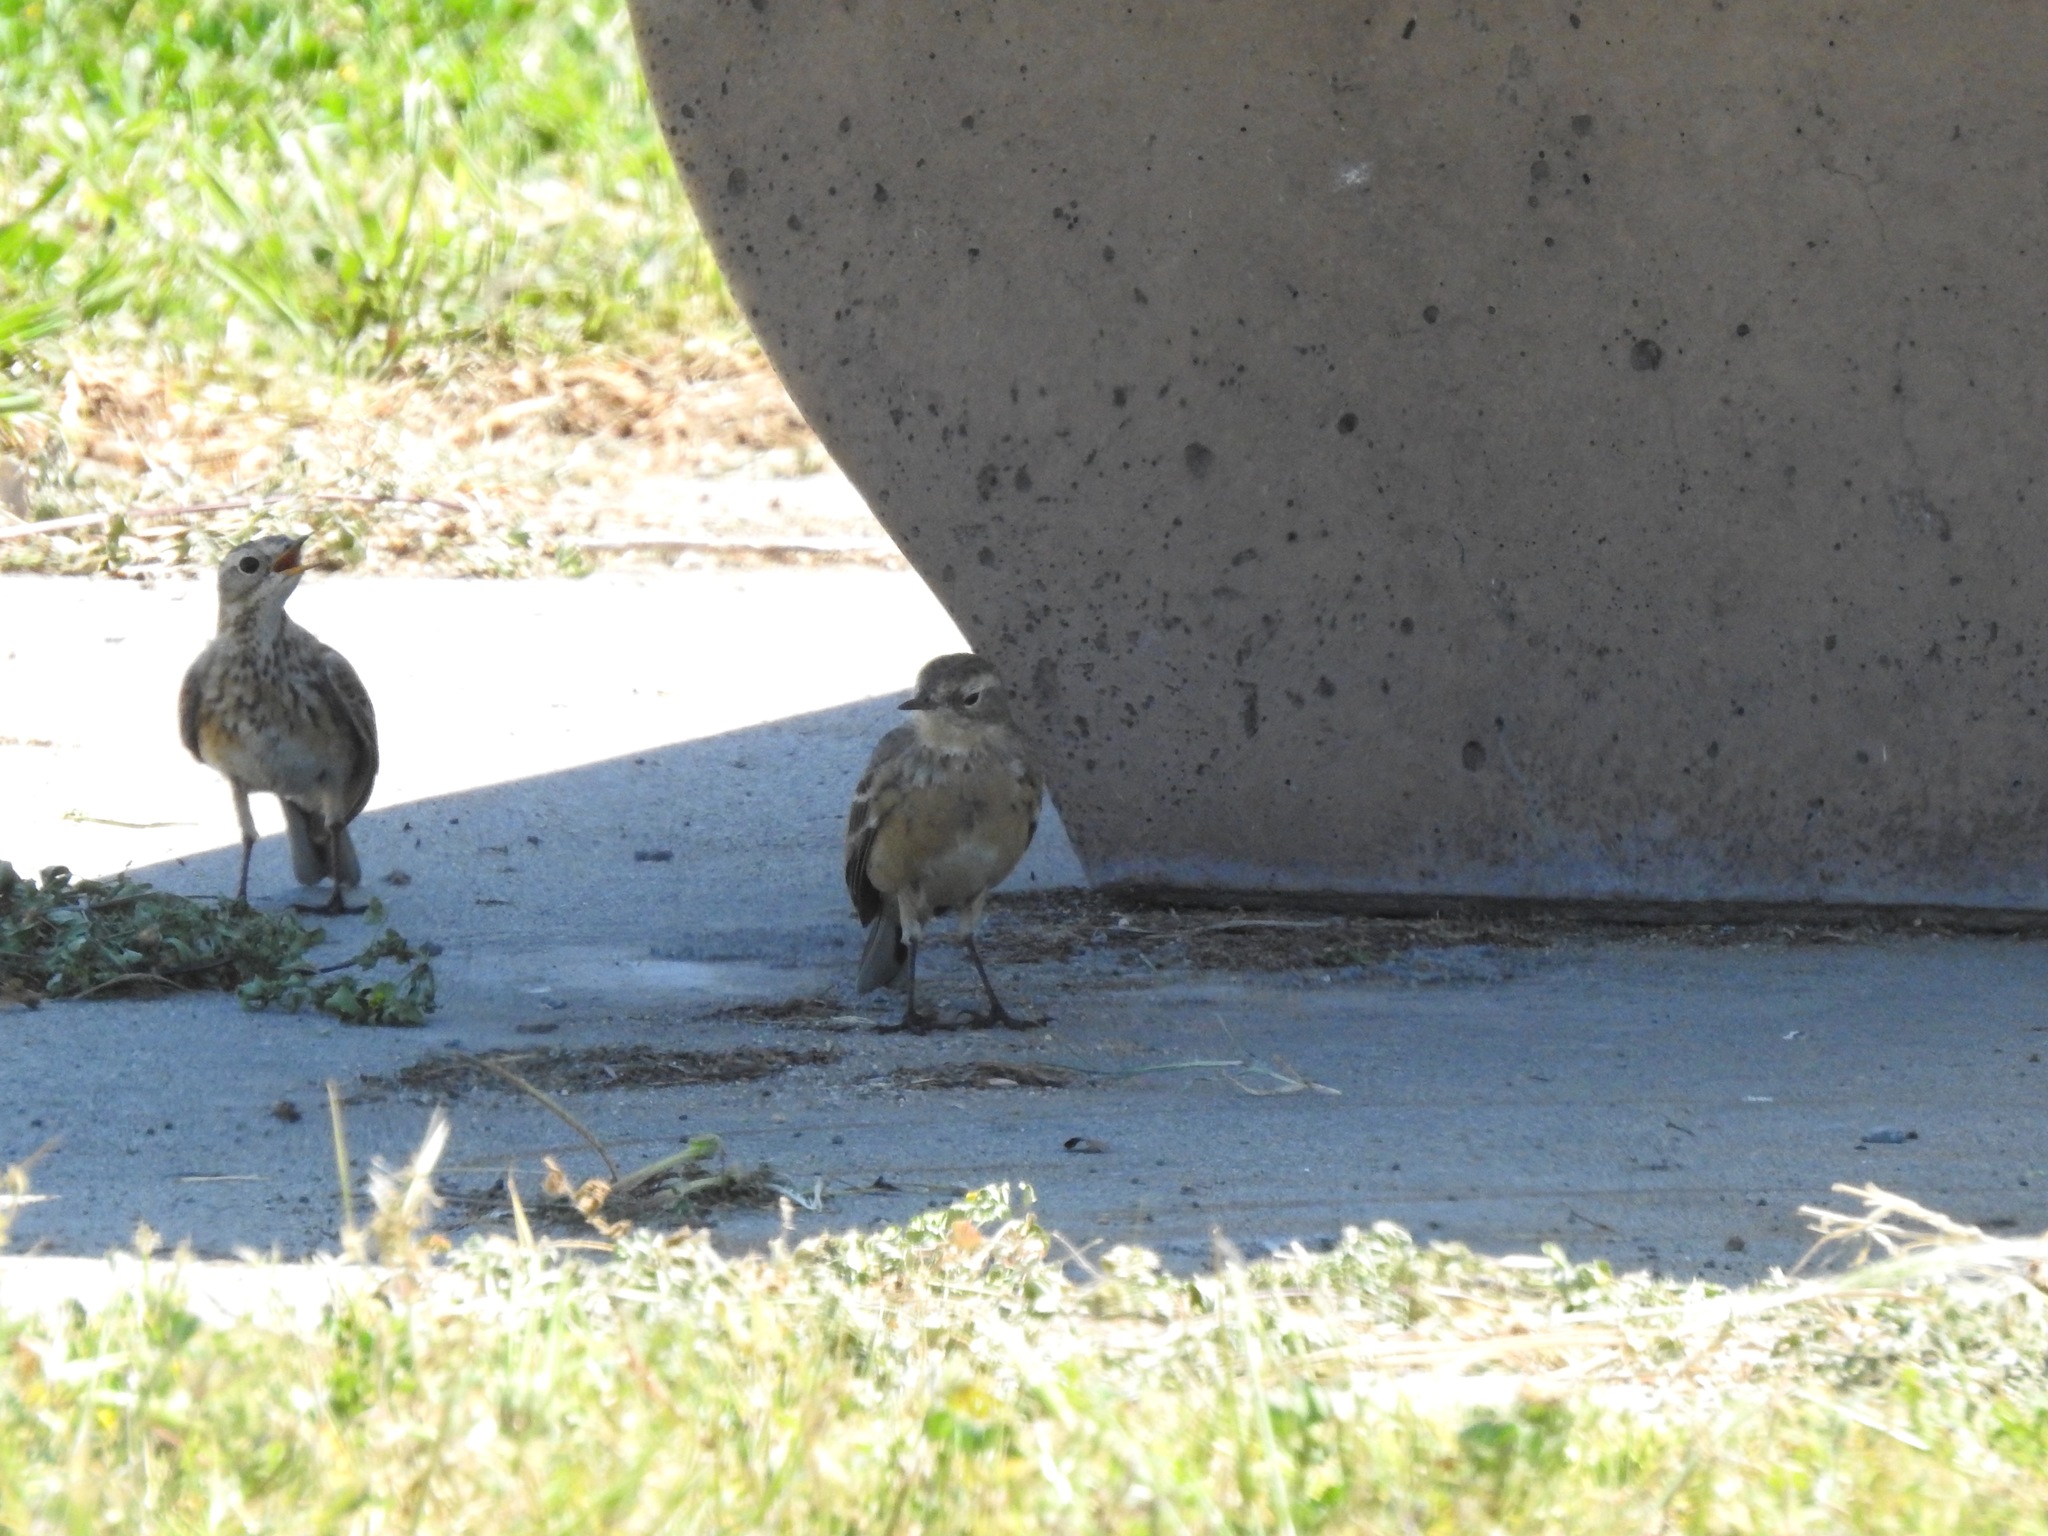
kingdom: Animalia
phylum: Chordata
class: Aves
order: Passeriformes
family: Motacillidae
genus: Anthus
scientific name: Anthus rubescens
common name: Buff-bellied pipit
